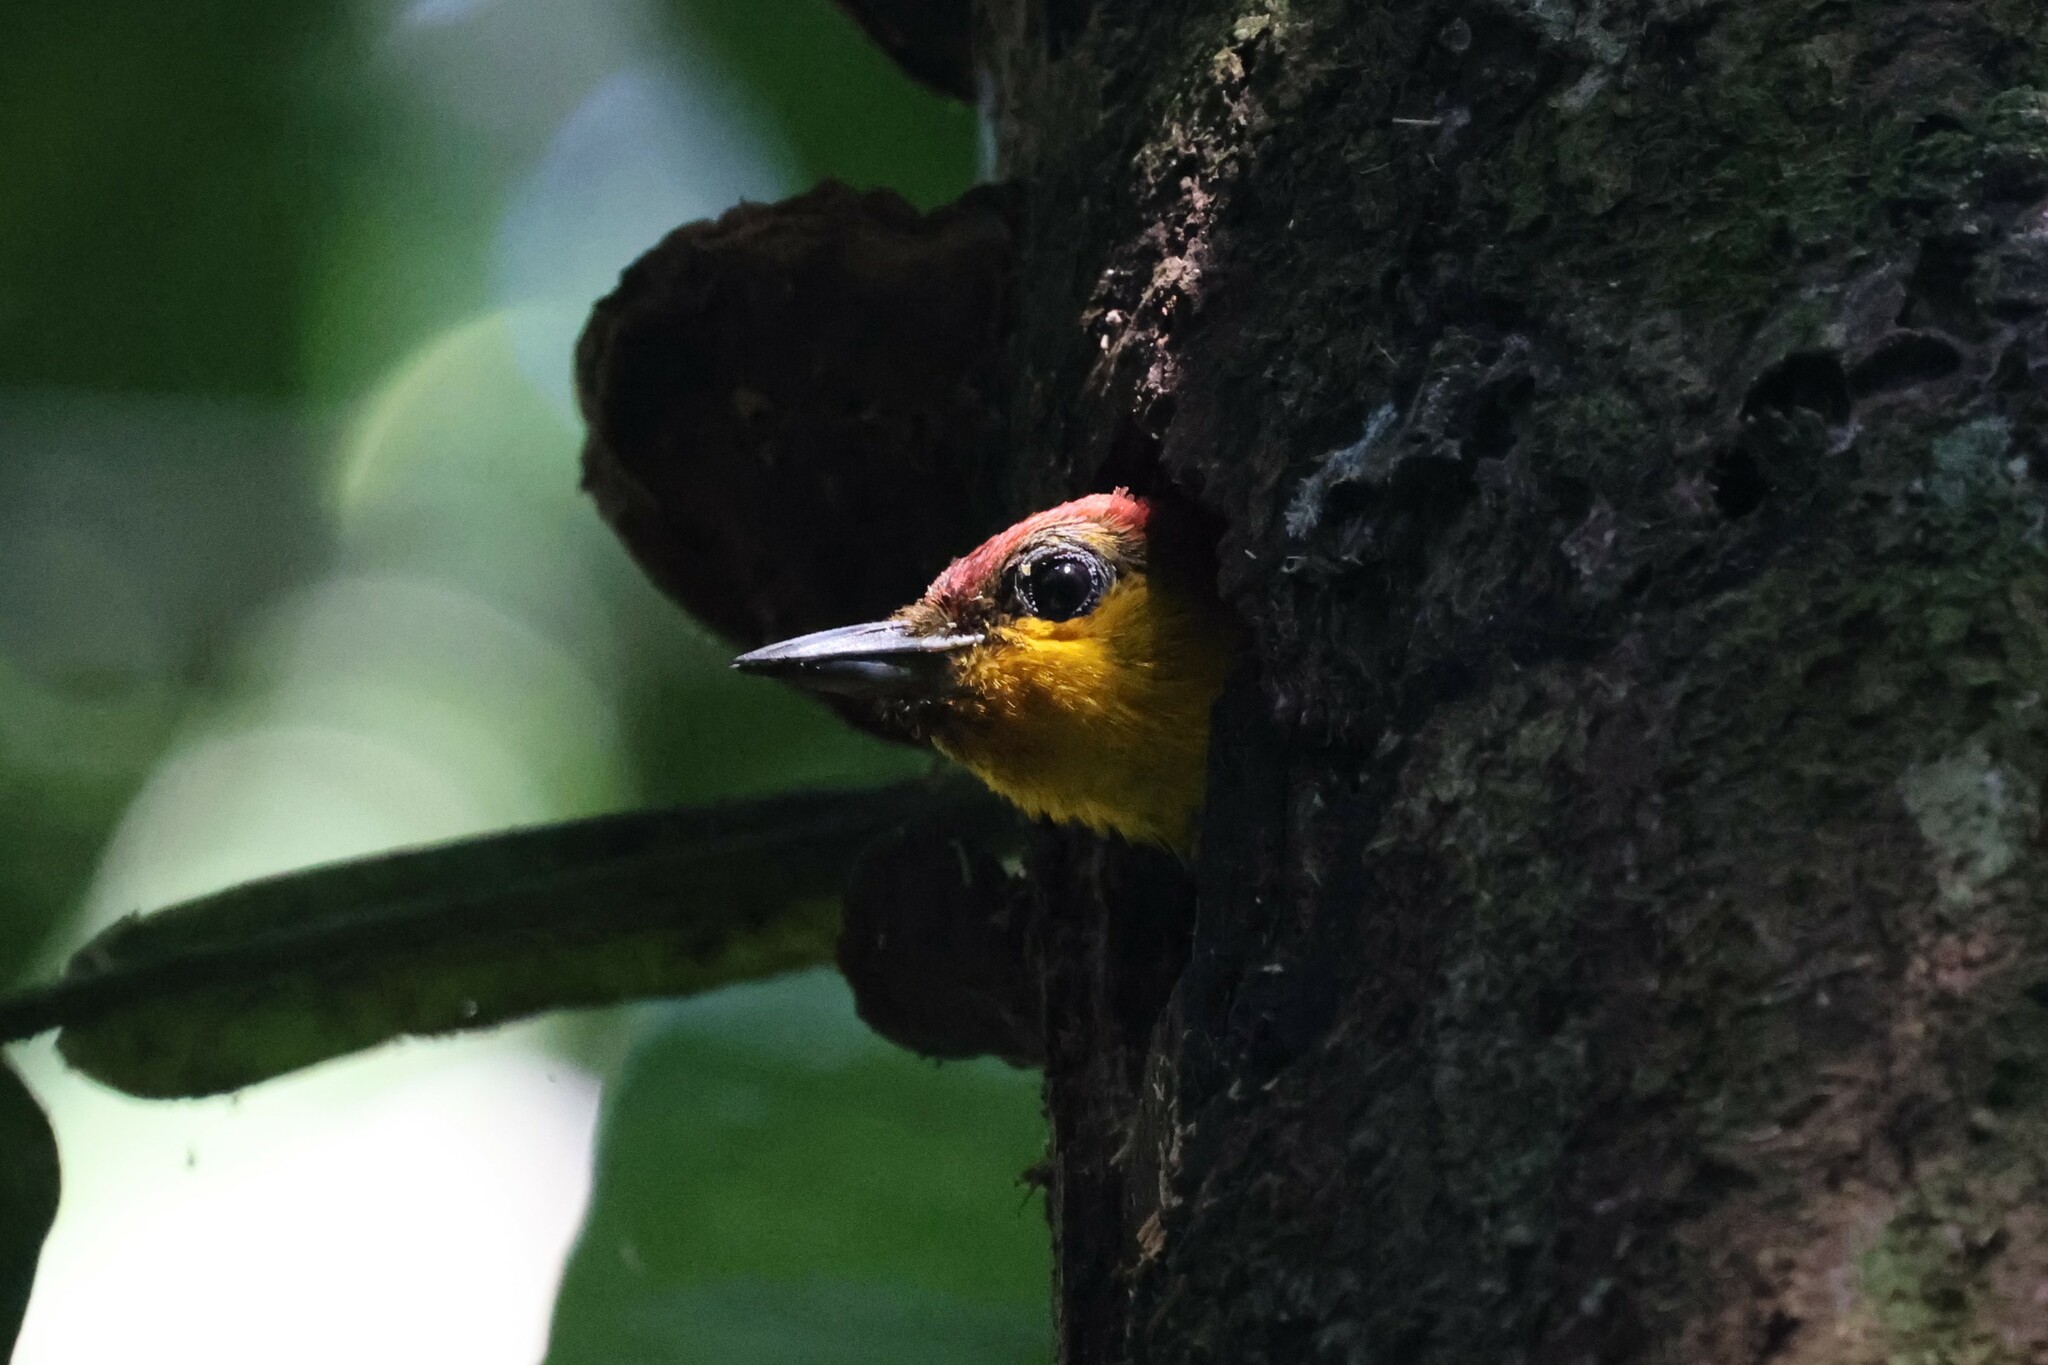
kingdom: Animalia
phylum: Chordata
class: Aves
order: Piciformes
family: Picidae
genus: Piculus
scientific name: Piculus flavigula
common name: Yellow-throated woodpecker
